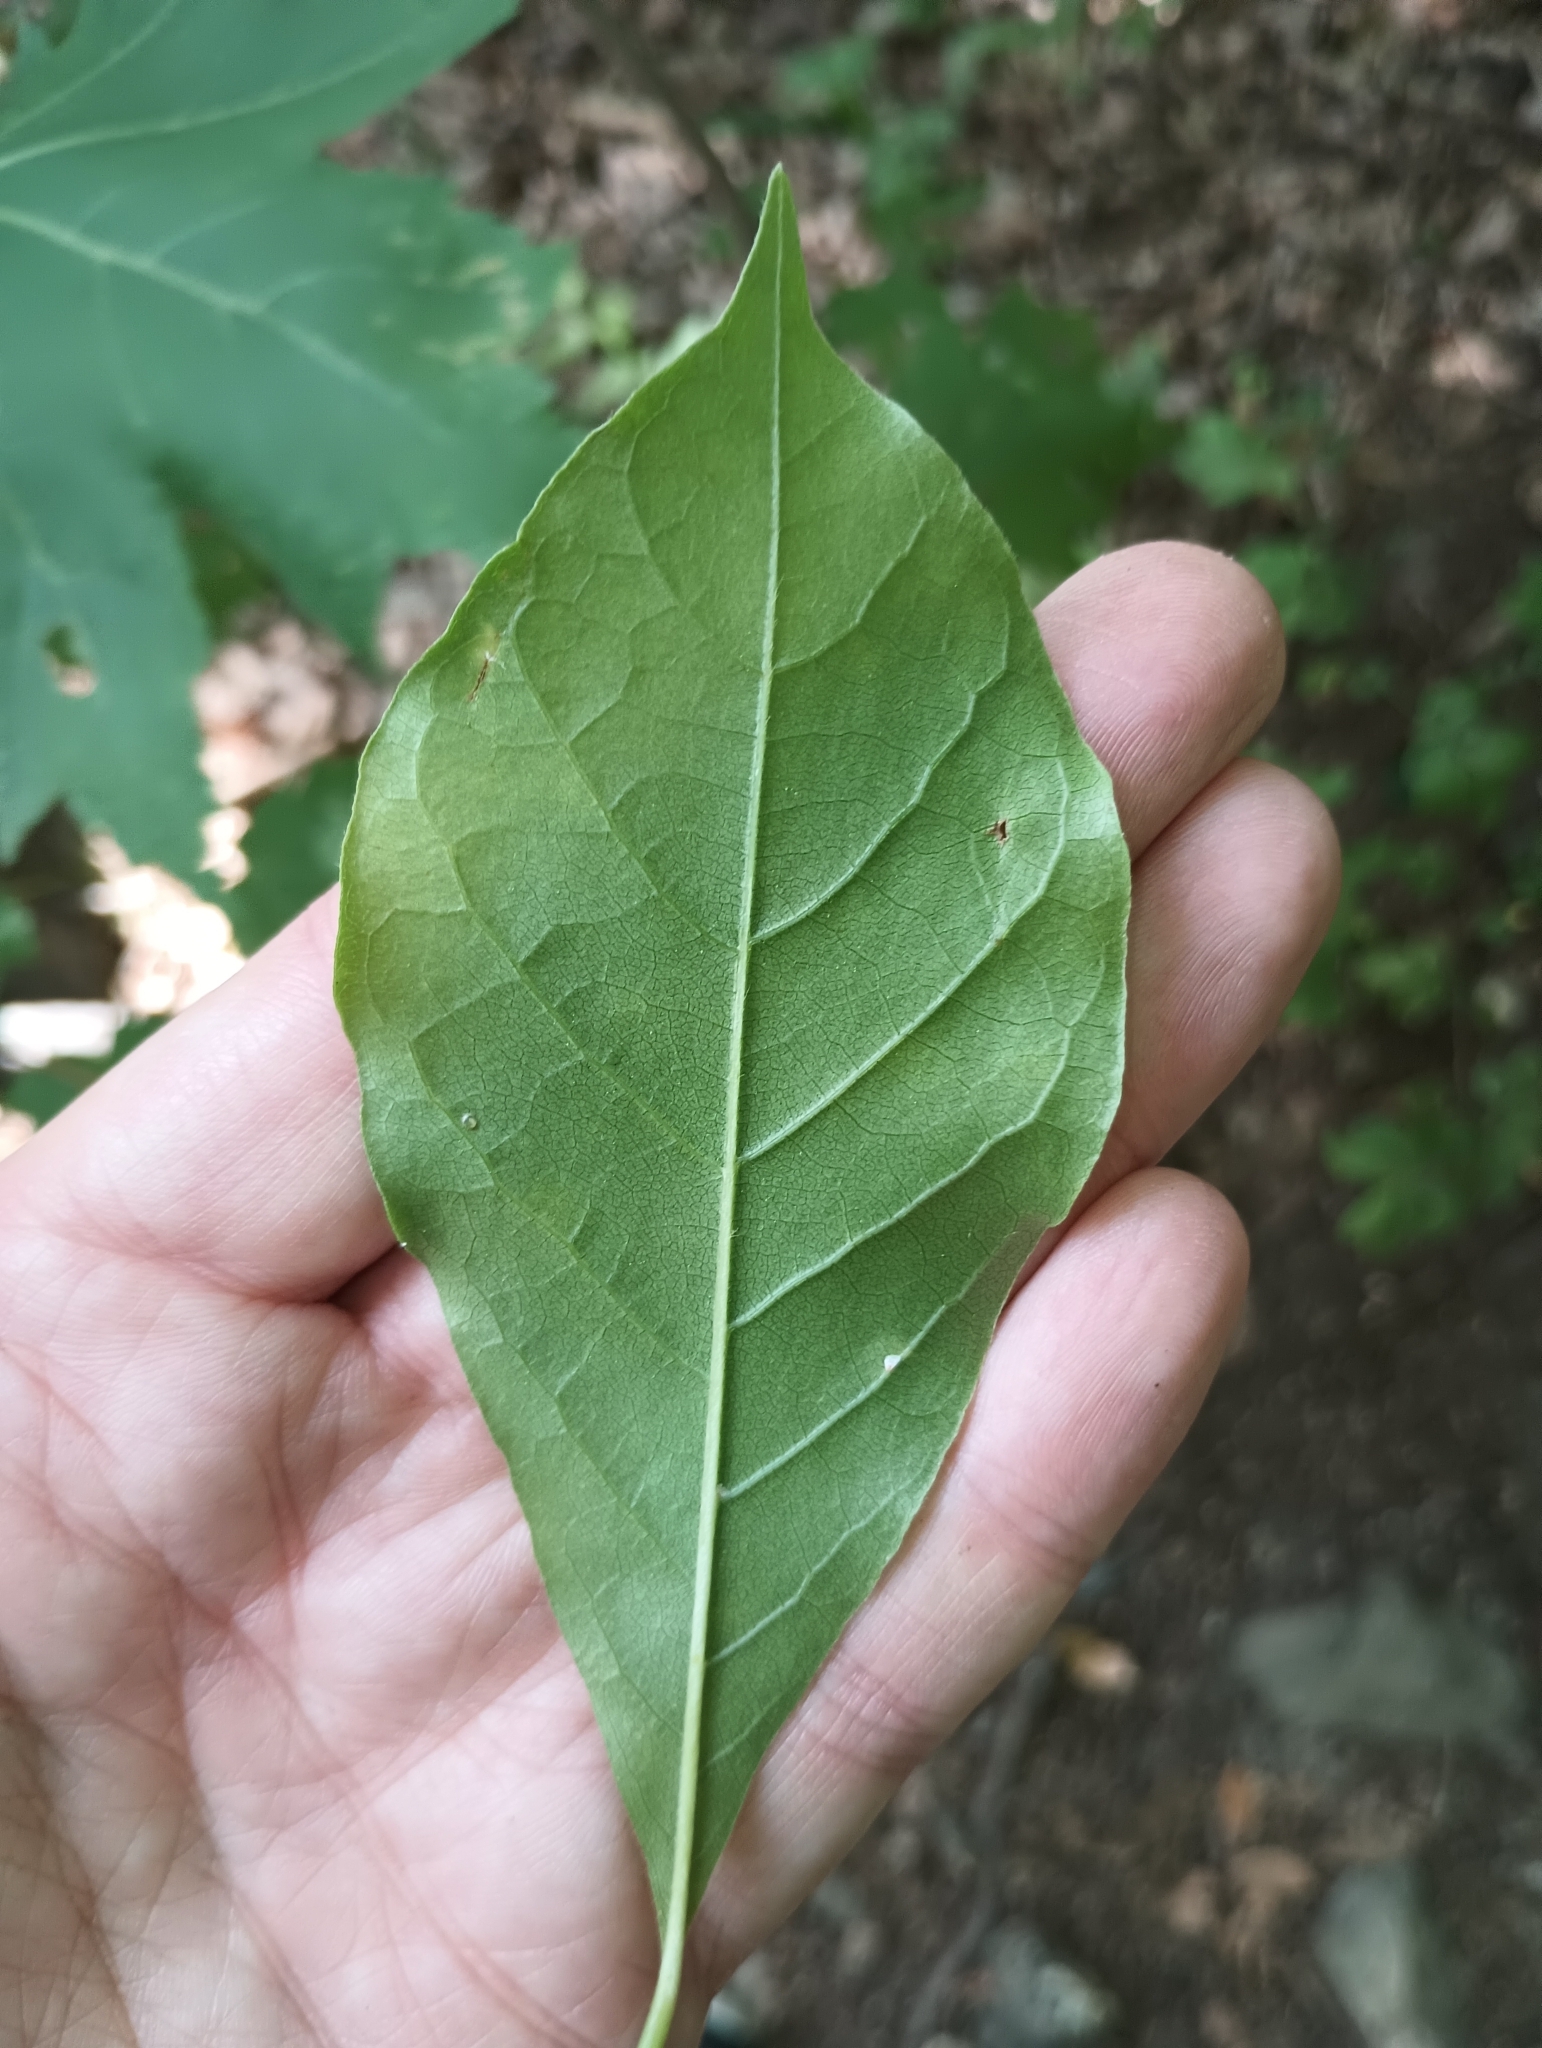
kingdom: Plantae
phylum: Tracheophyta
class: Magnoliopsida
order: Cornales
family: Nyssaceae
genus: Nyssa
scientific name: Nyssa sylvatica
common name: Black tupelo
